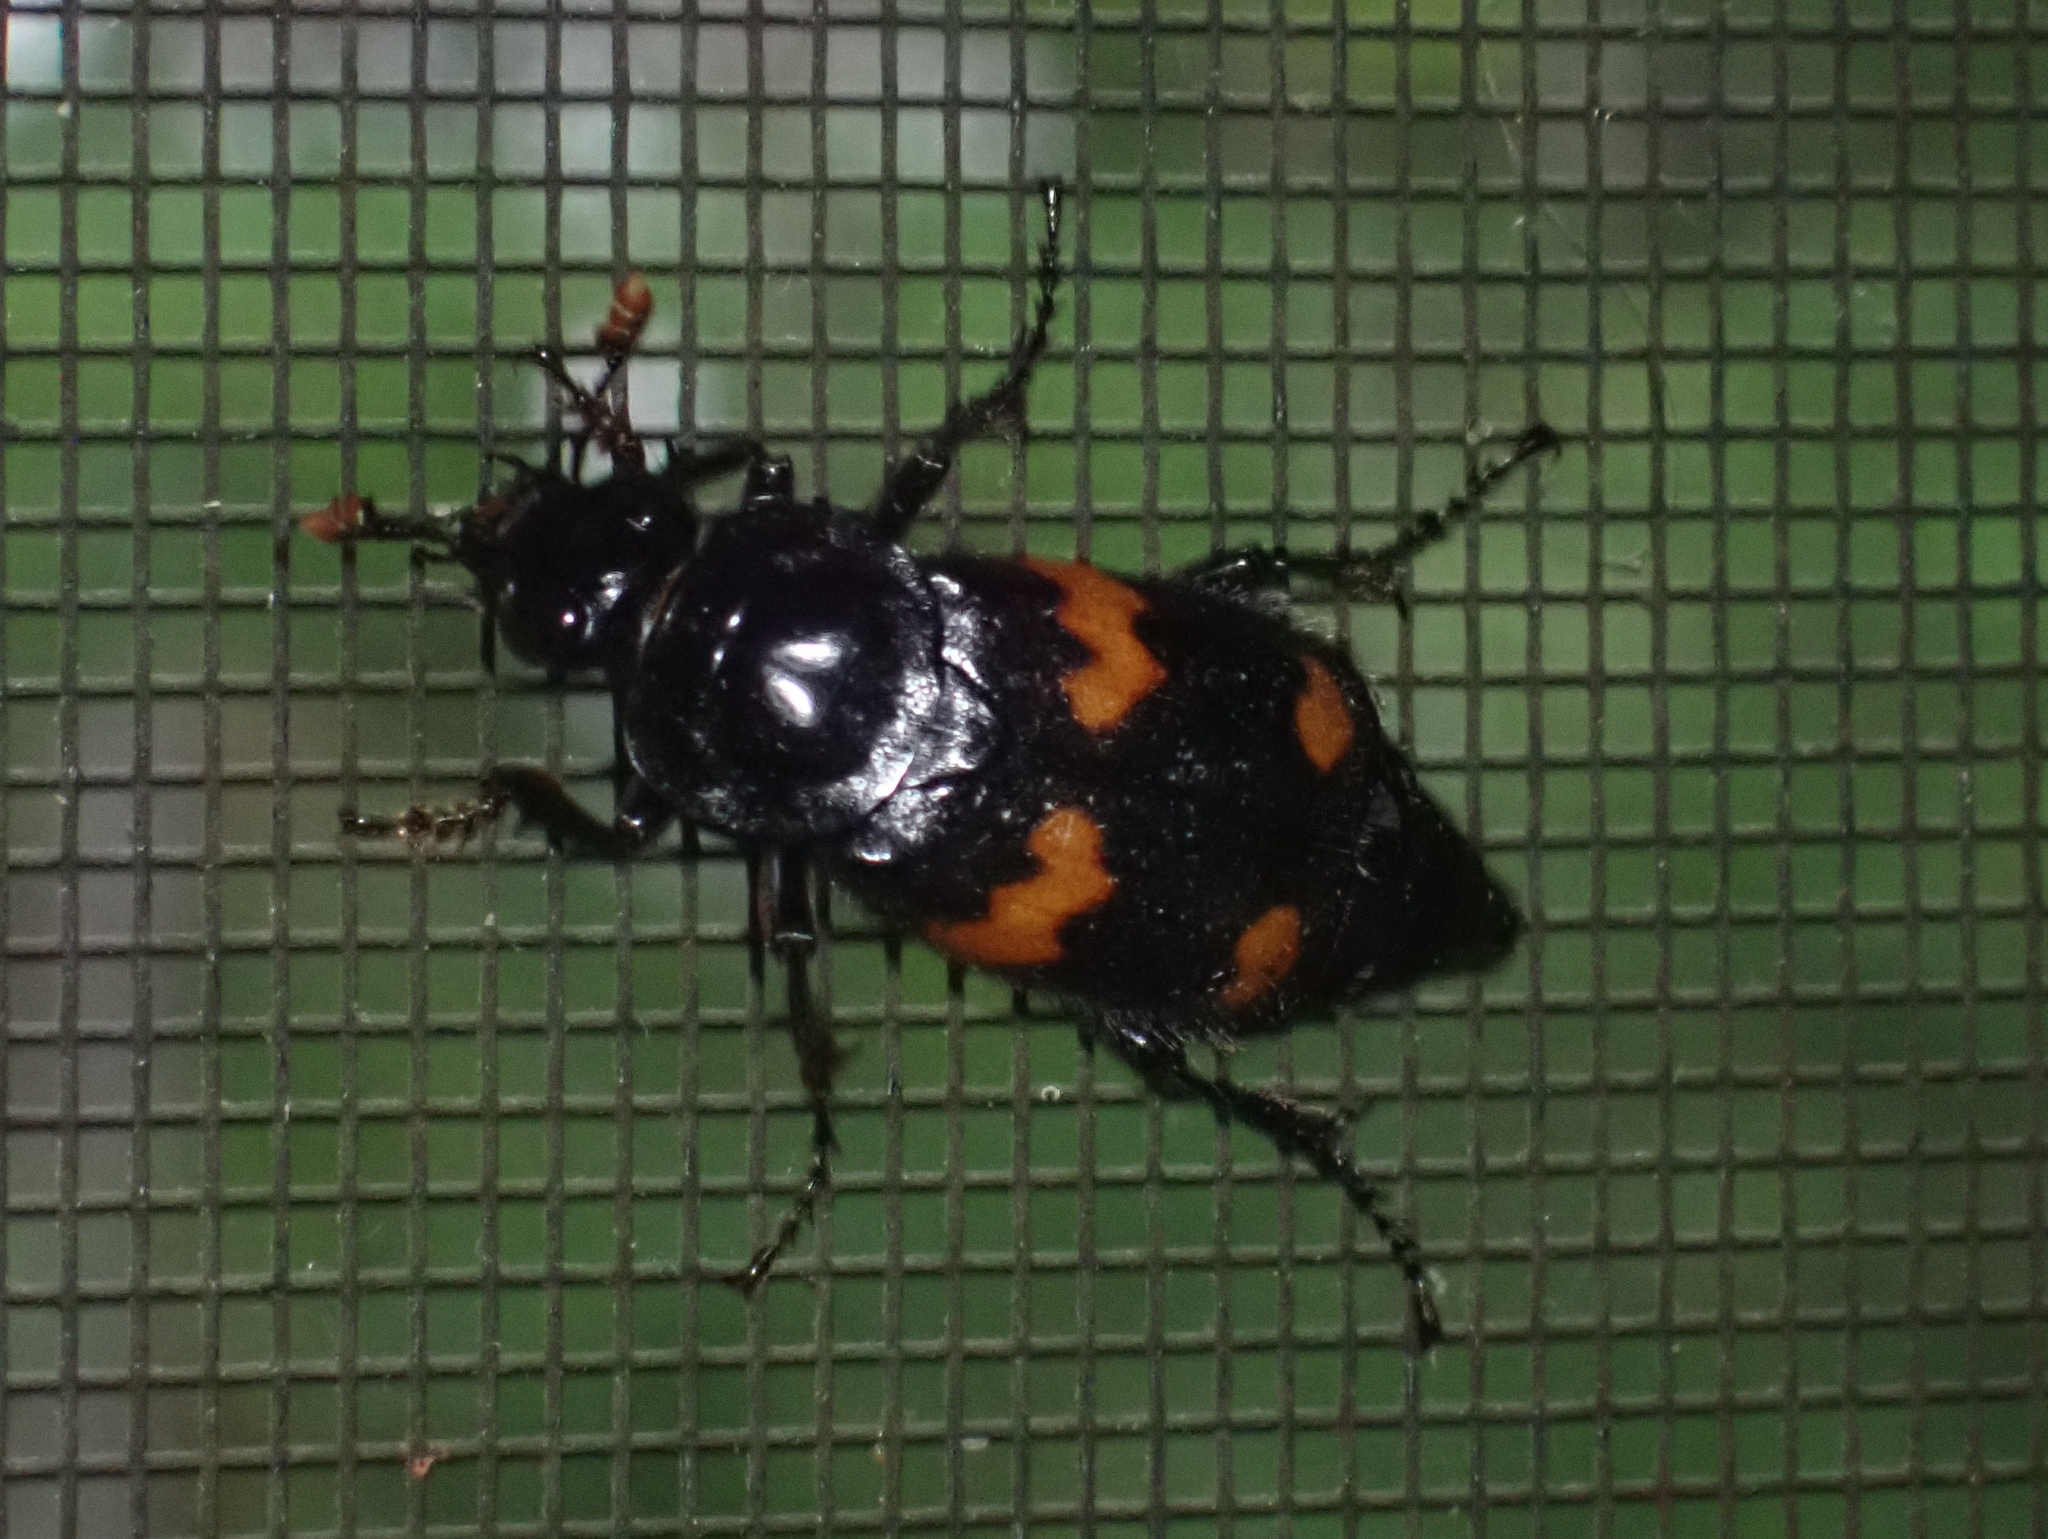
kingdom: Animalia
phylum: Arthropoda
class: Insecta
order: Coleoptera
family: Staphylinidae
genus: Nicrophorus
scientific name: Nicrophorus orbicollis
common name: Roundneck sexton beetle
